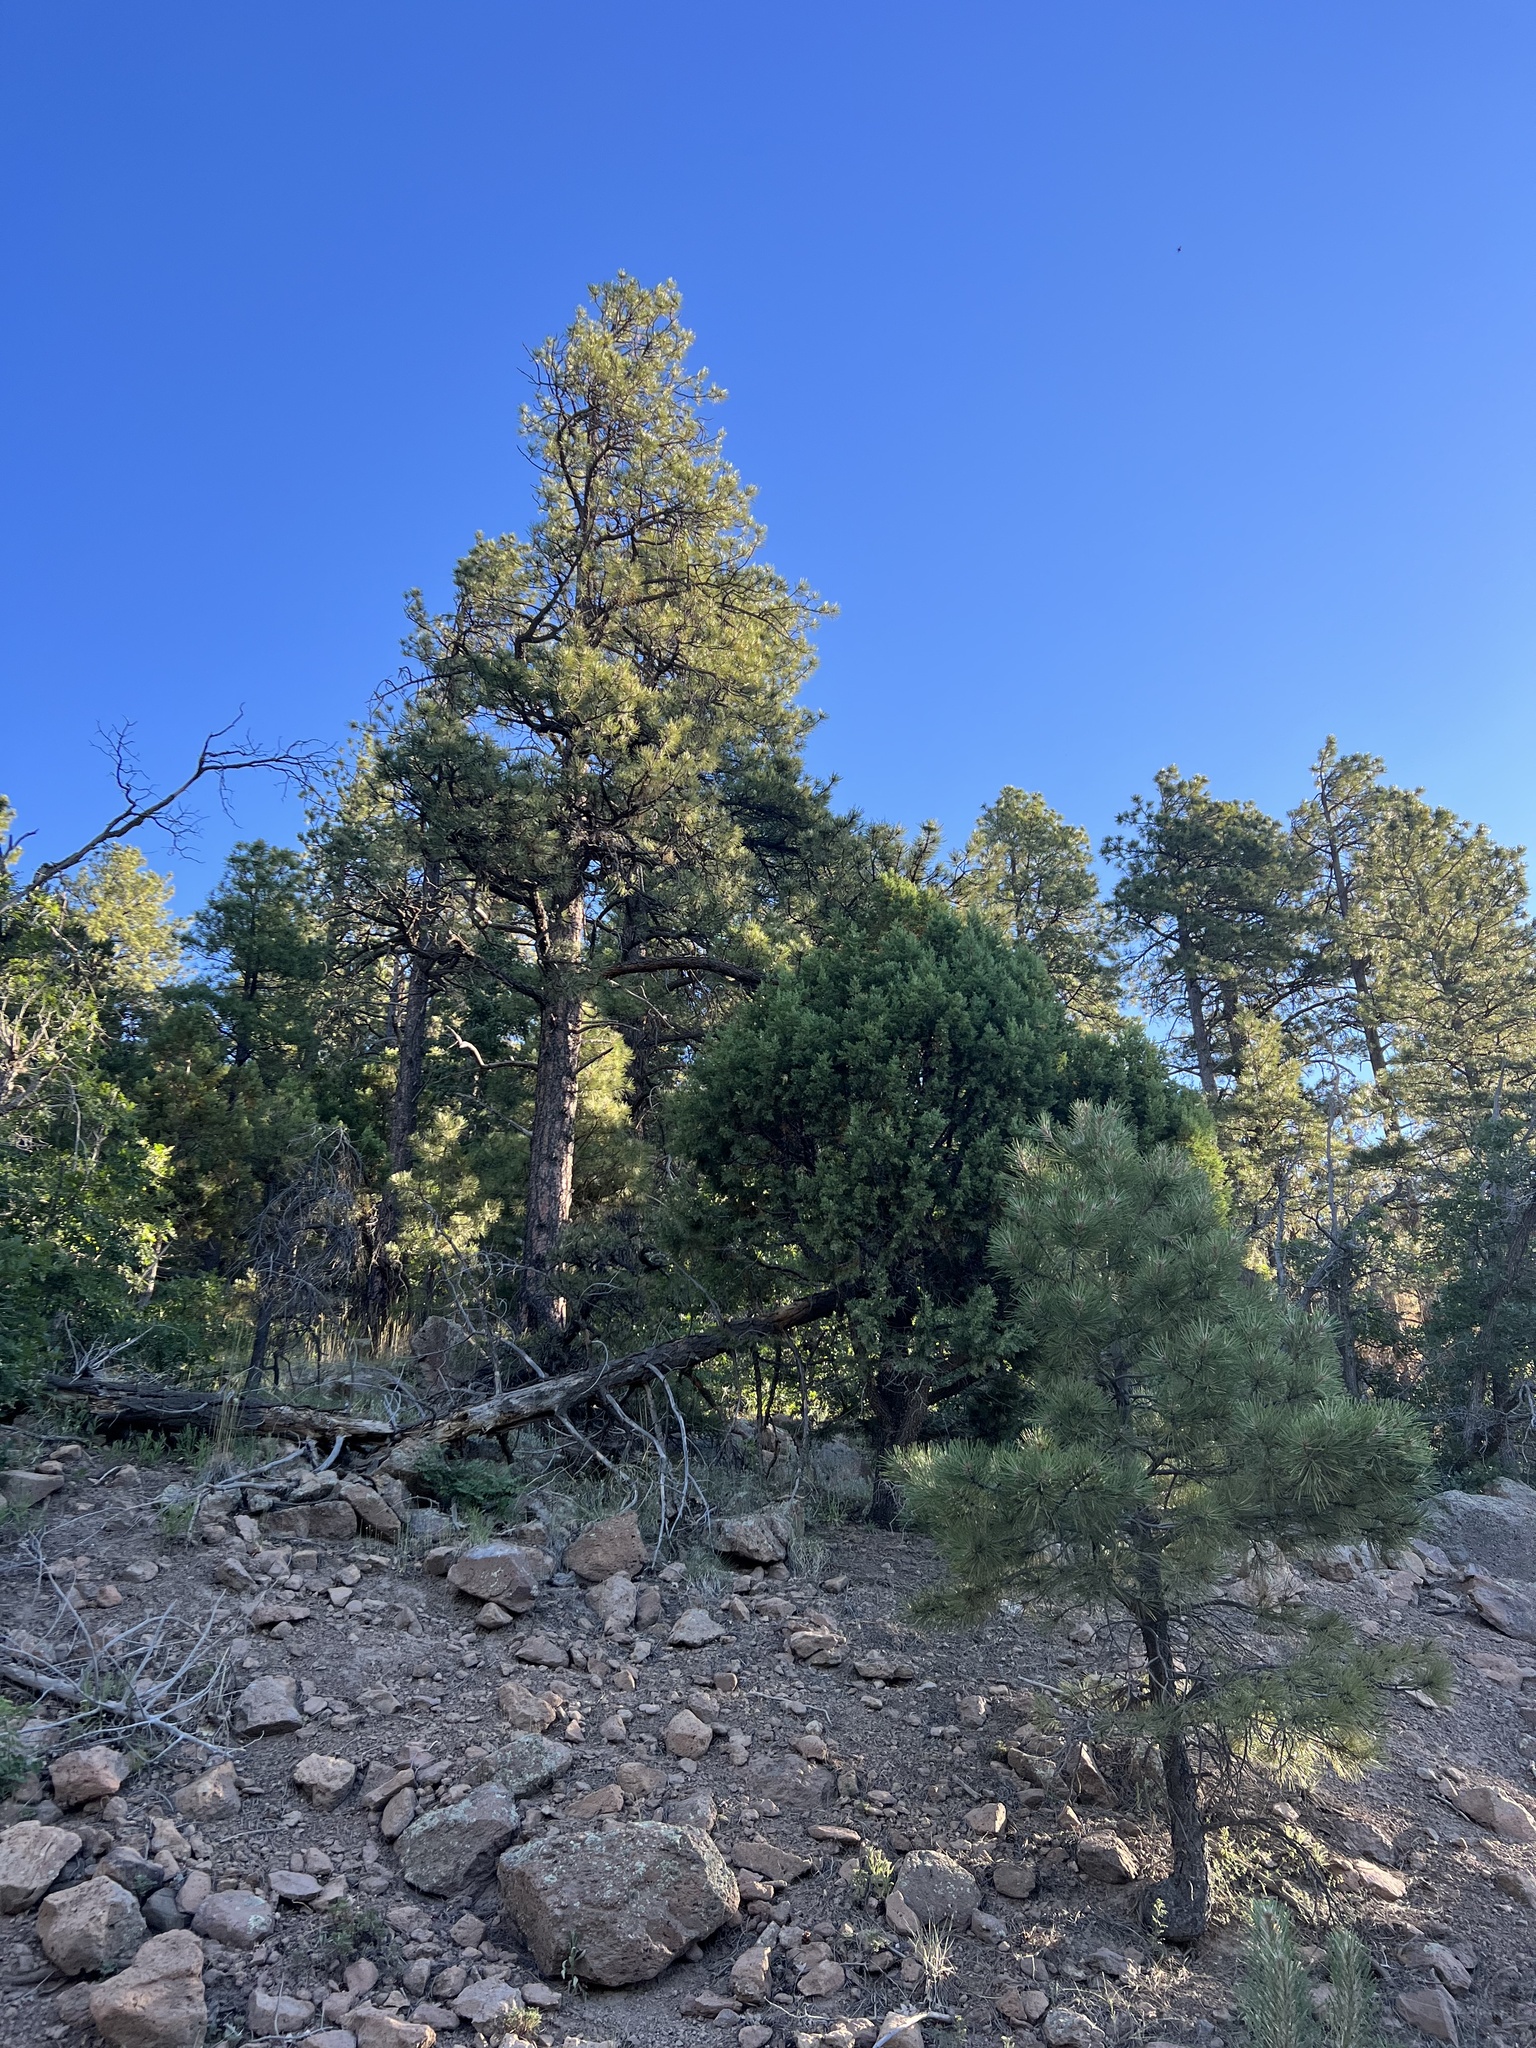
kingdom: Plantae
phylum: Tracheophyta
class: Pinopsida
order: Pinales
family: Pinaceae
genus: Pinus
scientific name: Pinus ponderosa
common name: Western yellow-pine
